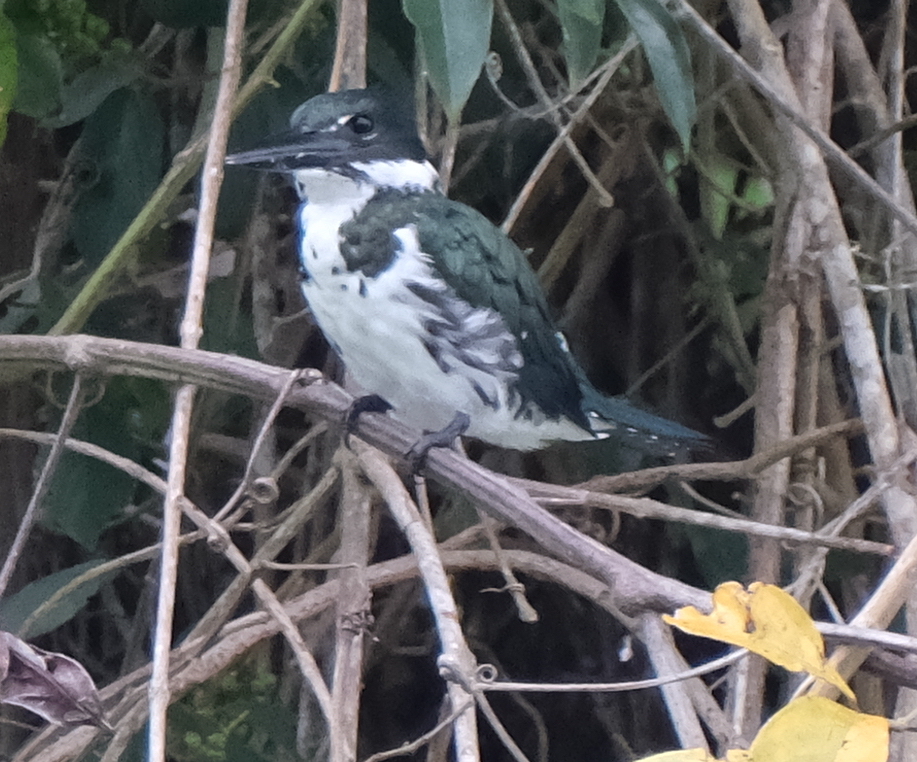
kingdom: Animalia
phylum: Chordata
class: Aves
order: Coraciiformes
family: Alcedinidae
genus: Chloroceryle
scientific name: Chloroceryle amazona
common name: Amazon kingfisher
